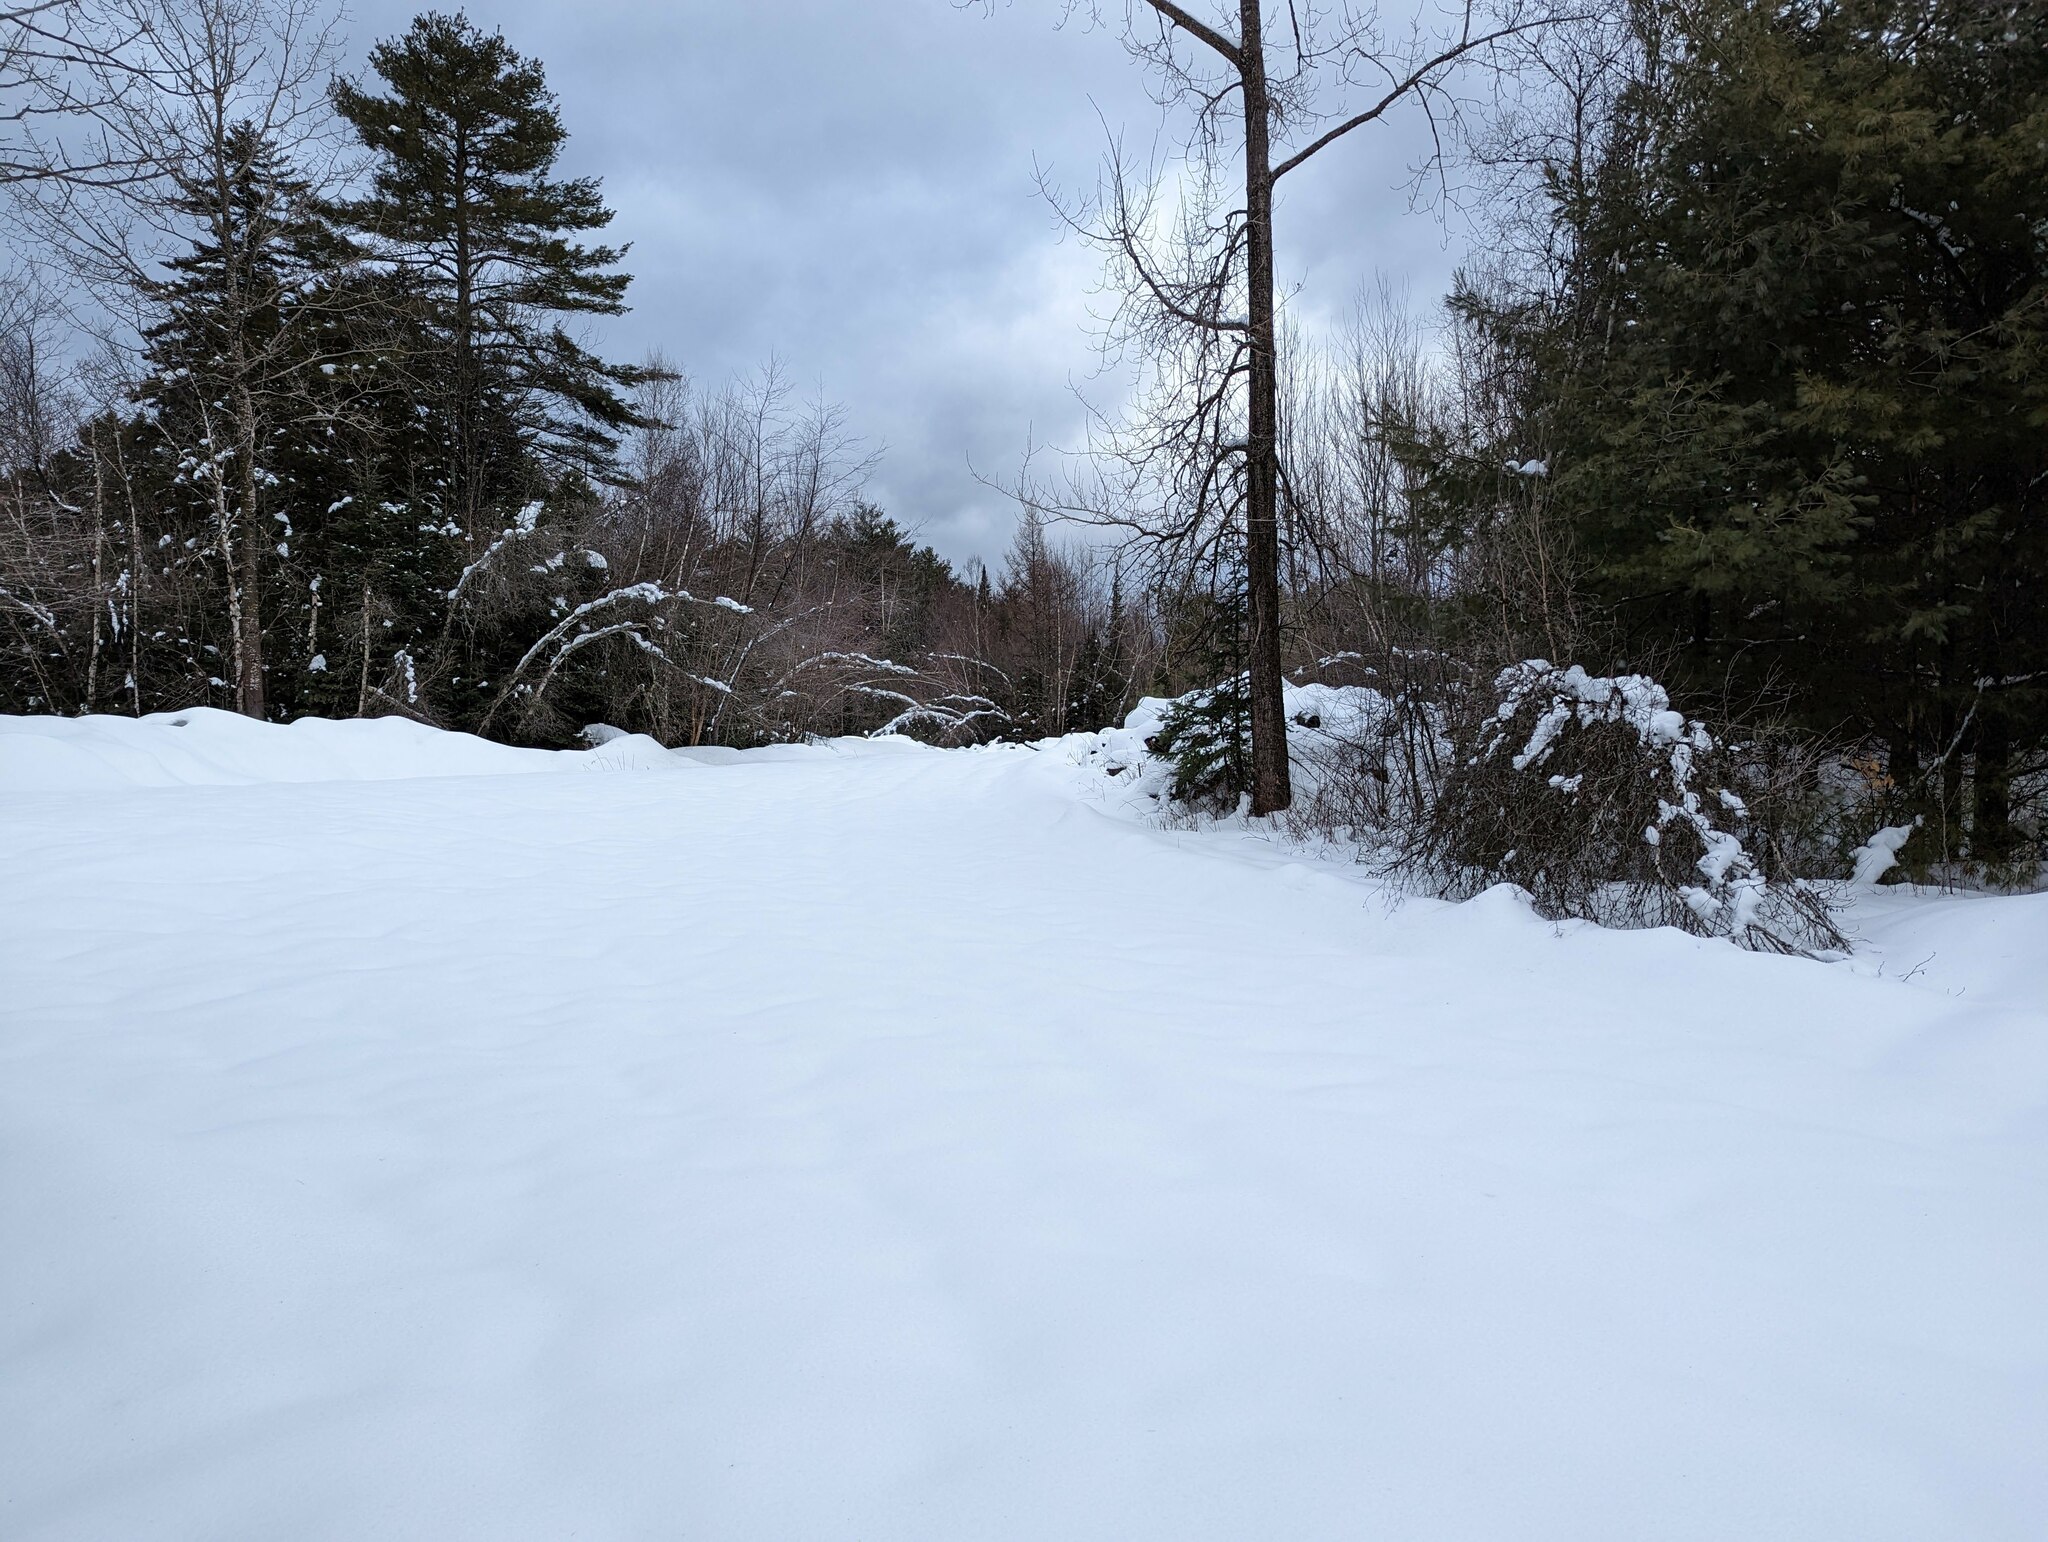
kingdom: Plantae
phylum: Tracheophyta
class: Pinopsida
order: Pinales
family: Pinaceae
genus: Pinus
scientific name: Pinus strobus
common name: Weymouth pine
